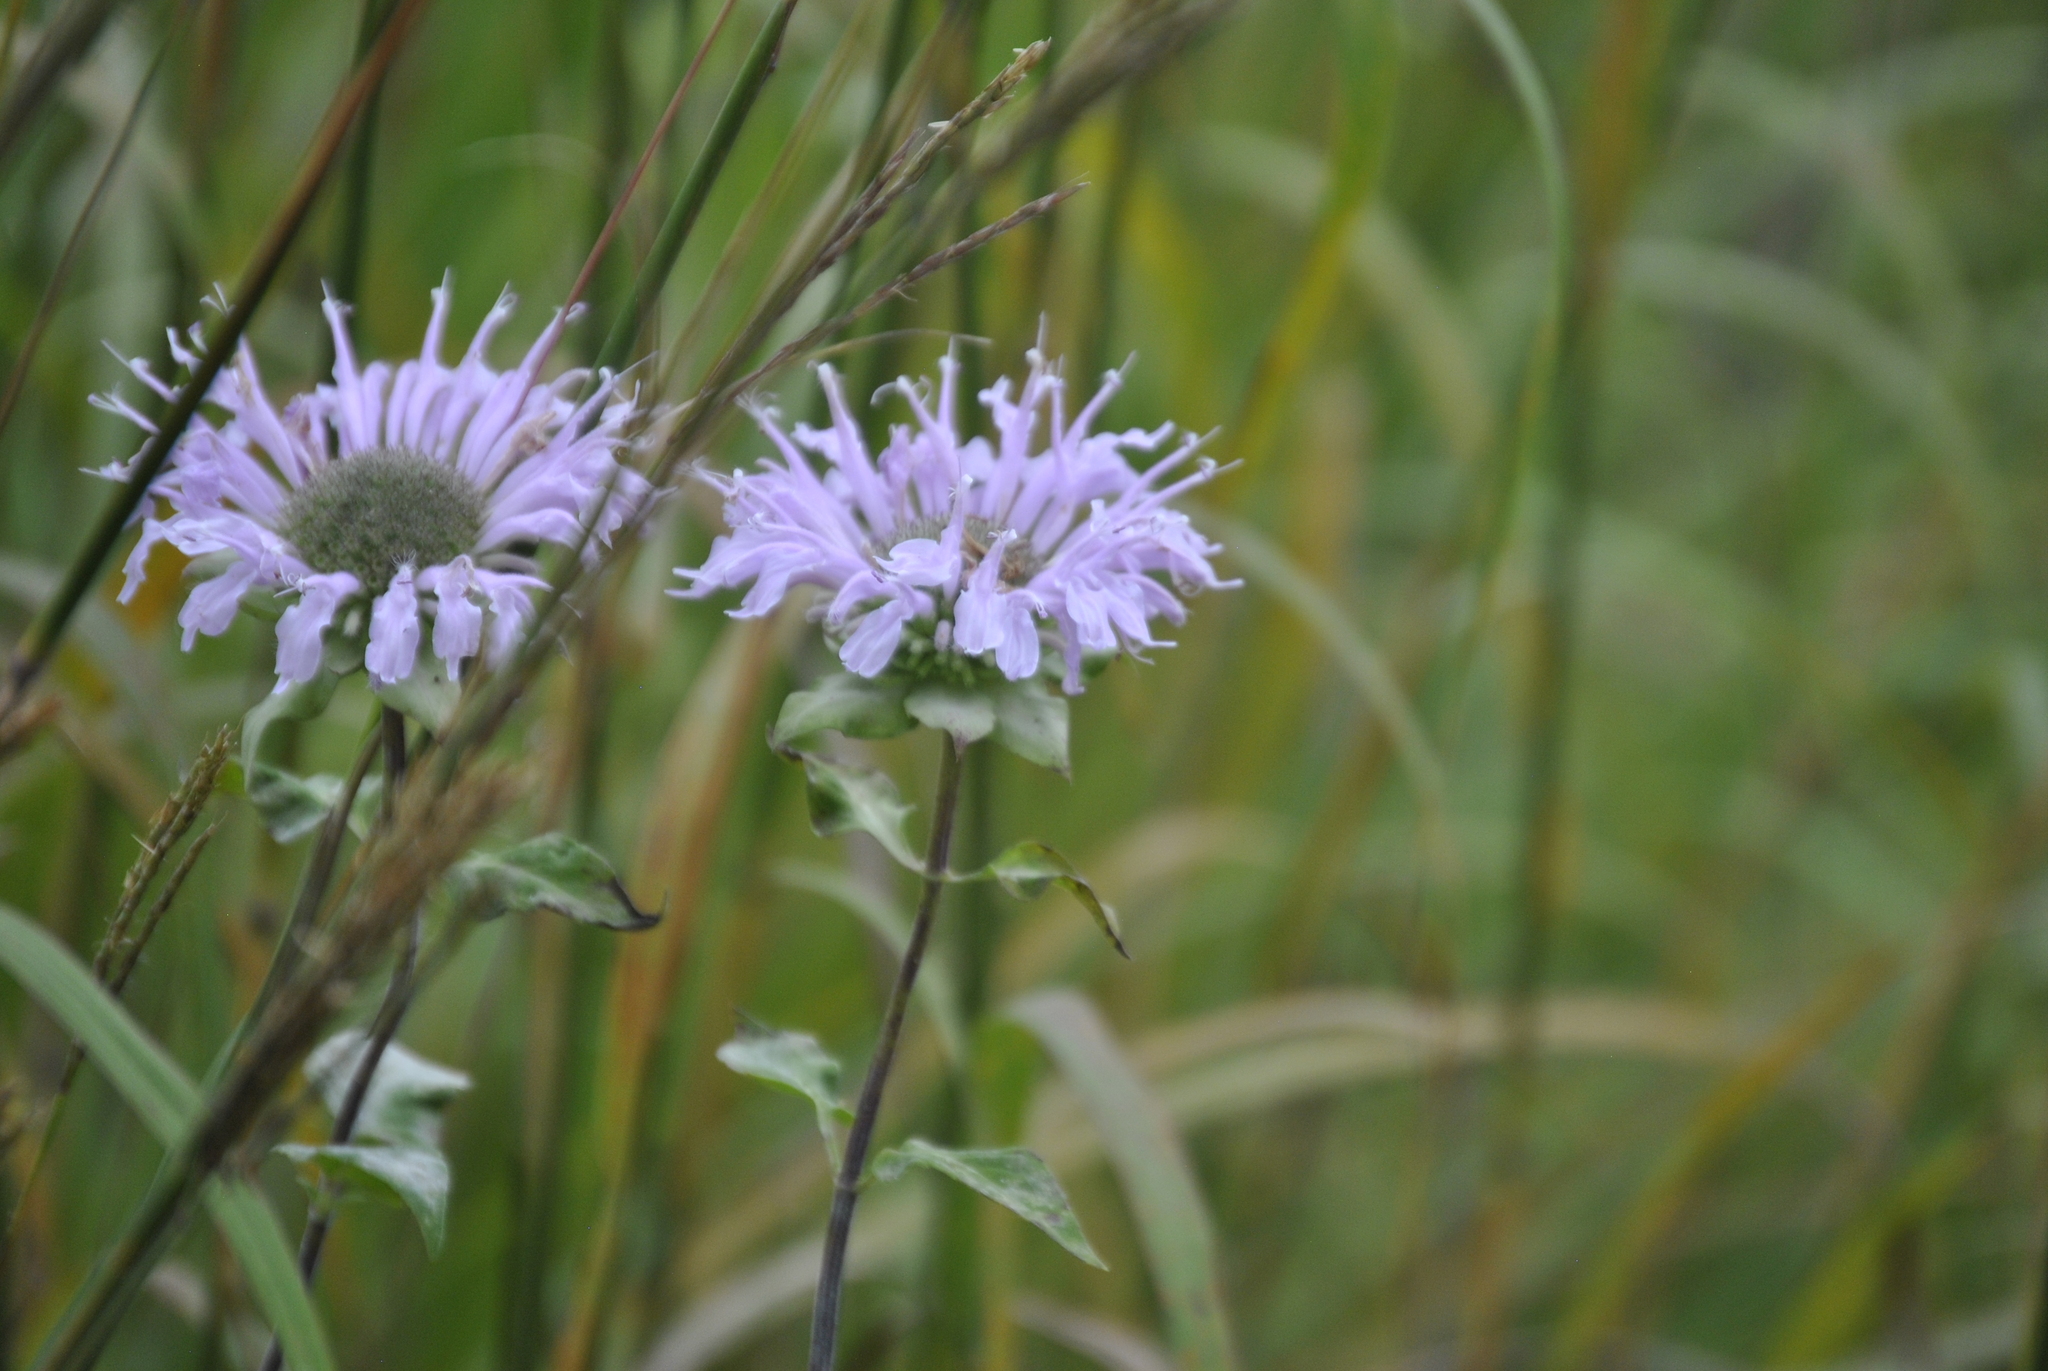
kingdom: Plantae
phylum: Tracheophyta
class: Magnoliopsida
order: Lamiales
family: Lamiaceae
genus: Monarda
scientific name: Monarda fistulosa
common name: Purple beebalm
